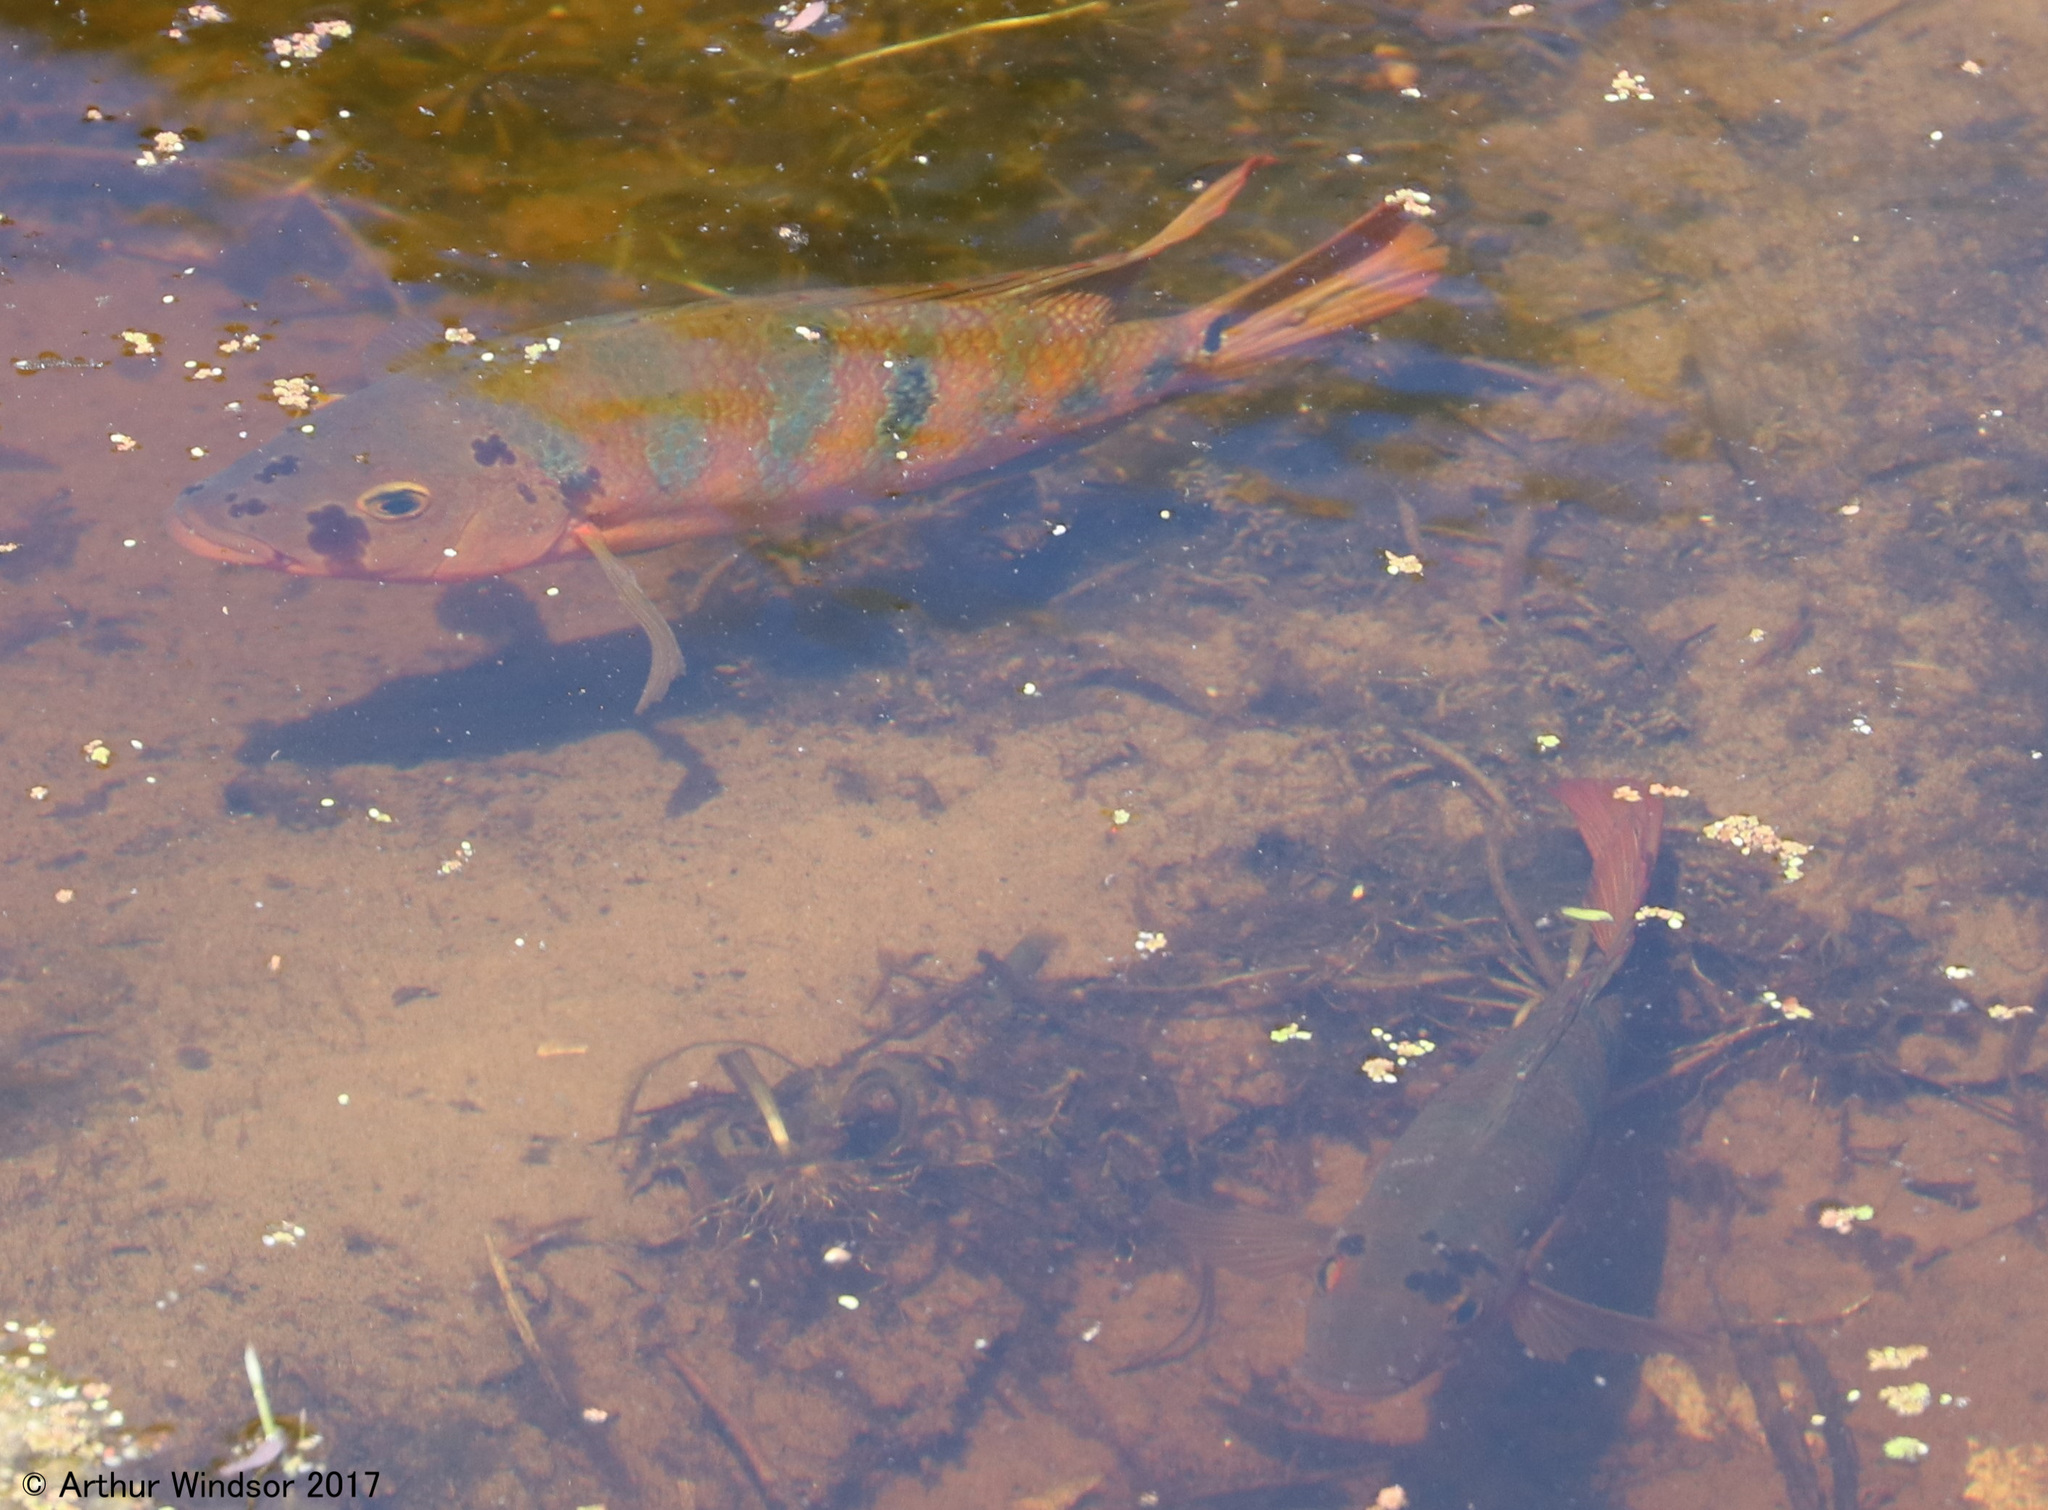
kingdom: Animalia
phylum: Chordata
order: Perciformes
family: Cichlidae
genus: Mayaheros
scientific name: Mayaheros urophthalmus
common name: Mayan cichlid
